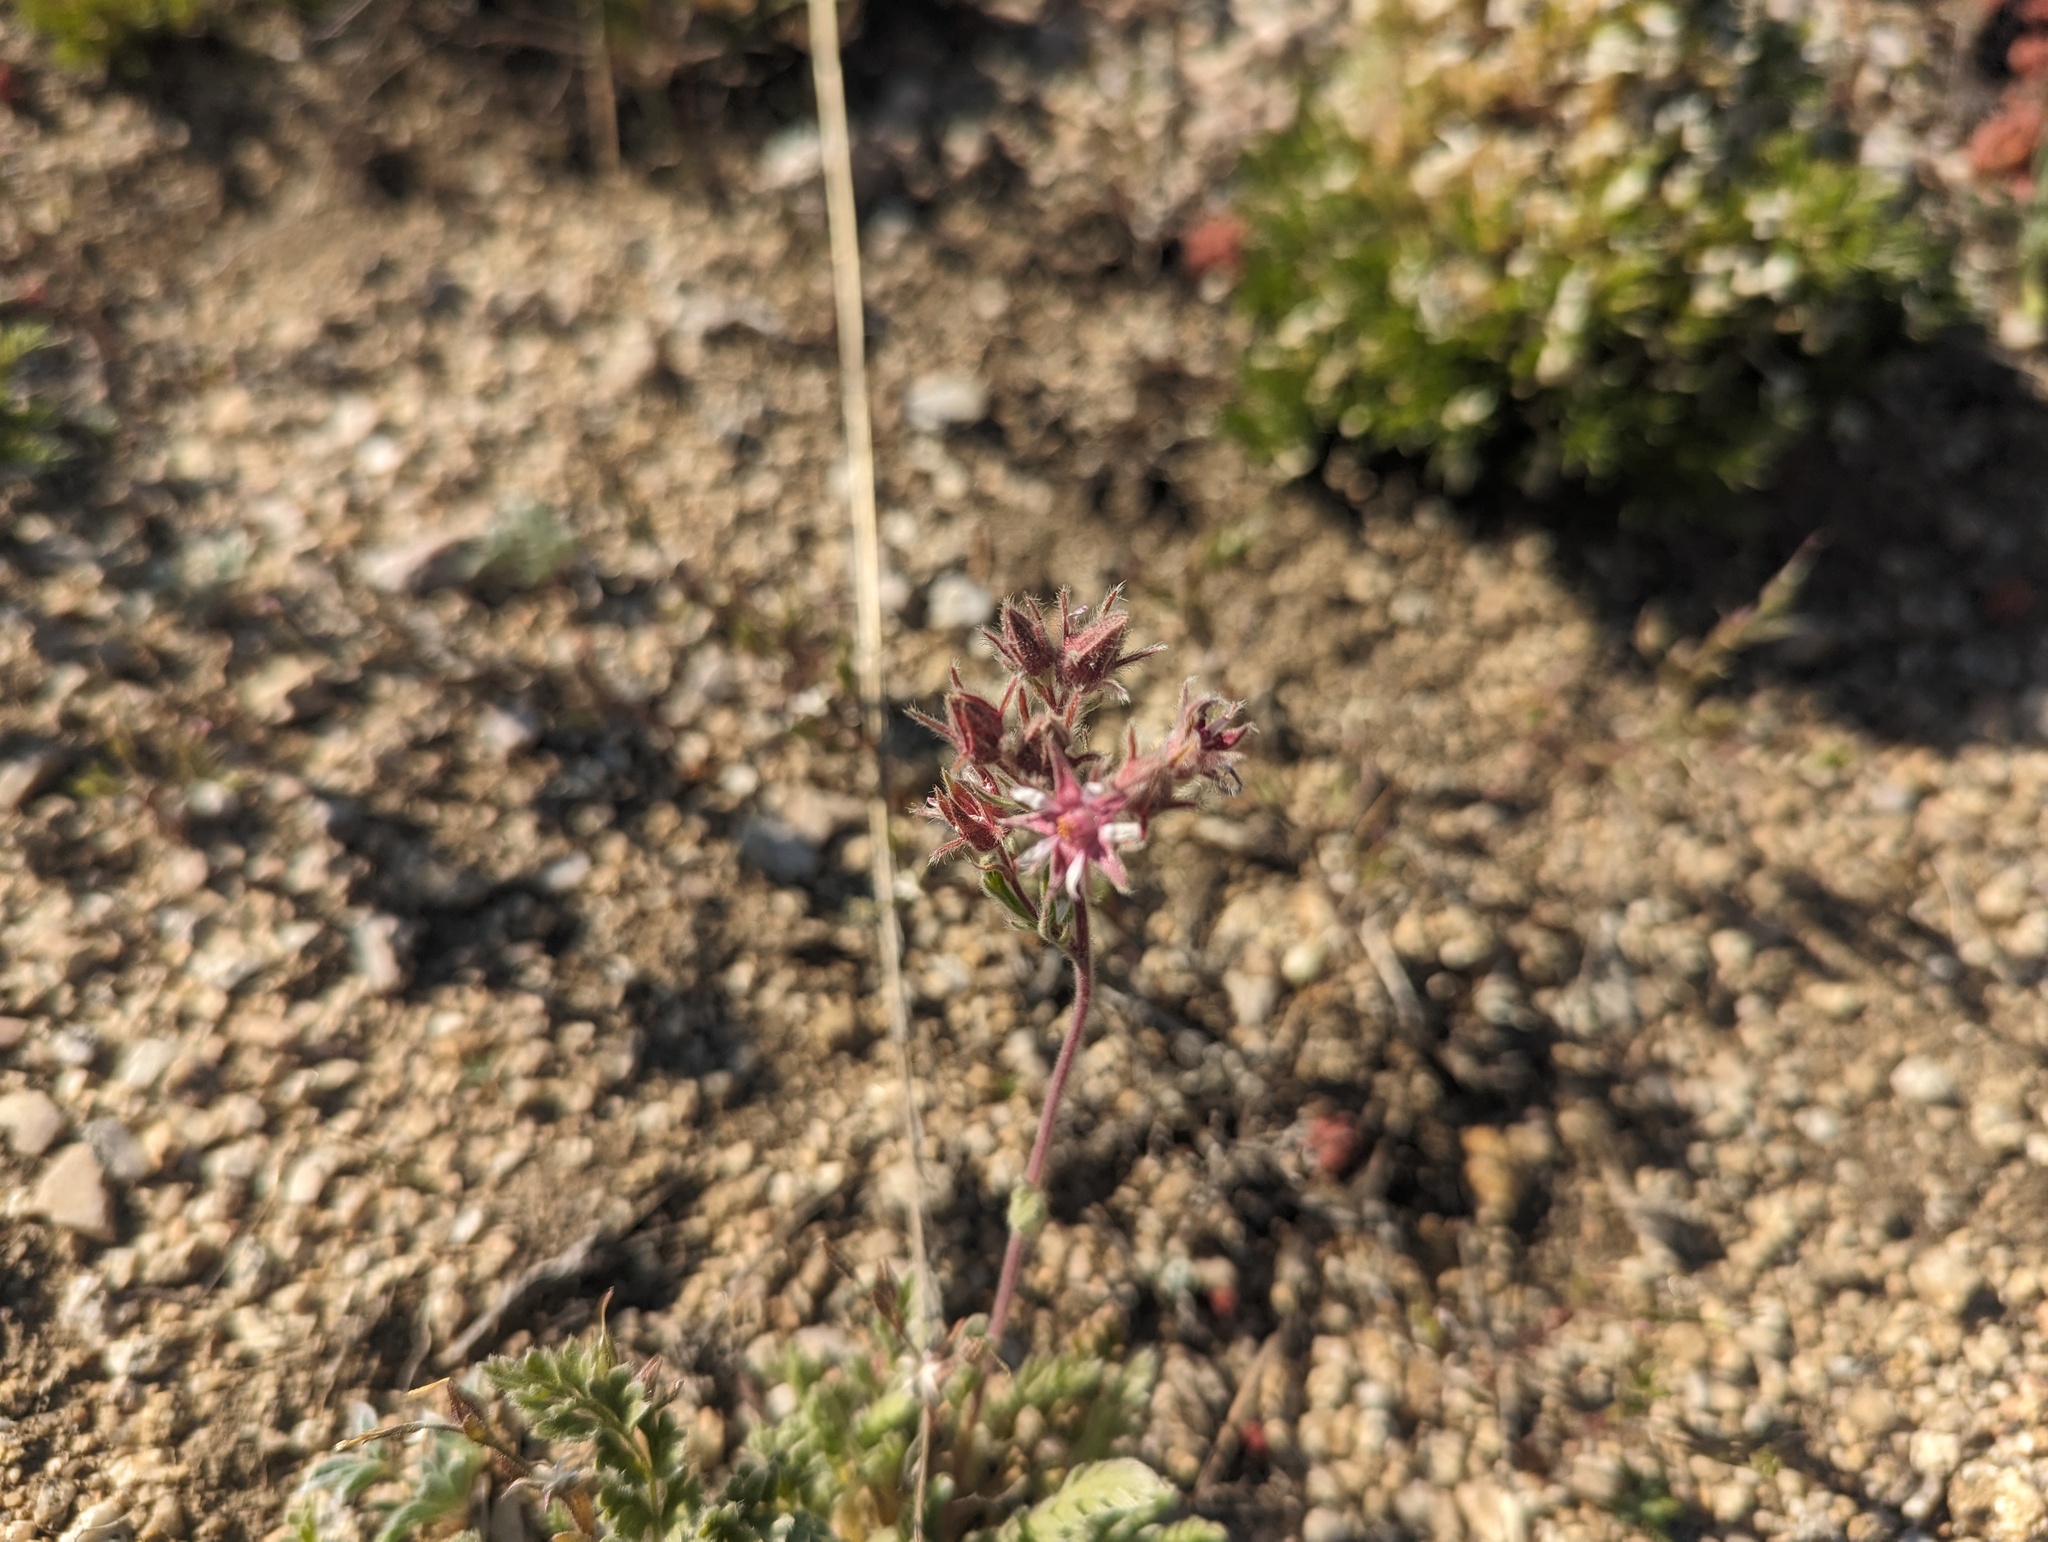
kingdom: Plantae
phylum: Tracheophyta
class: Magnoliopsida
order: Rosales
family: Rosaceae
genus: Potentilla
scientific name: Potentilla hendersonii
